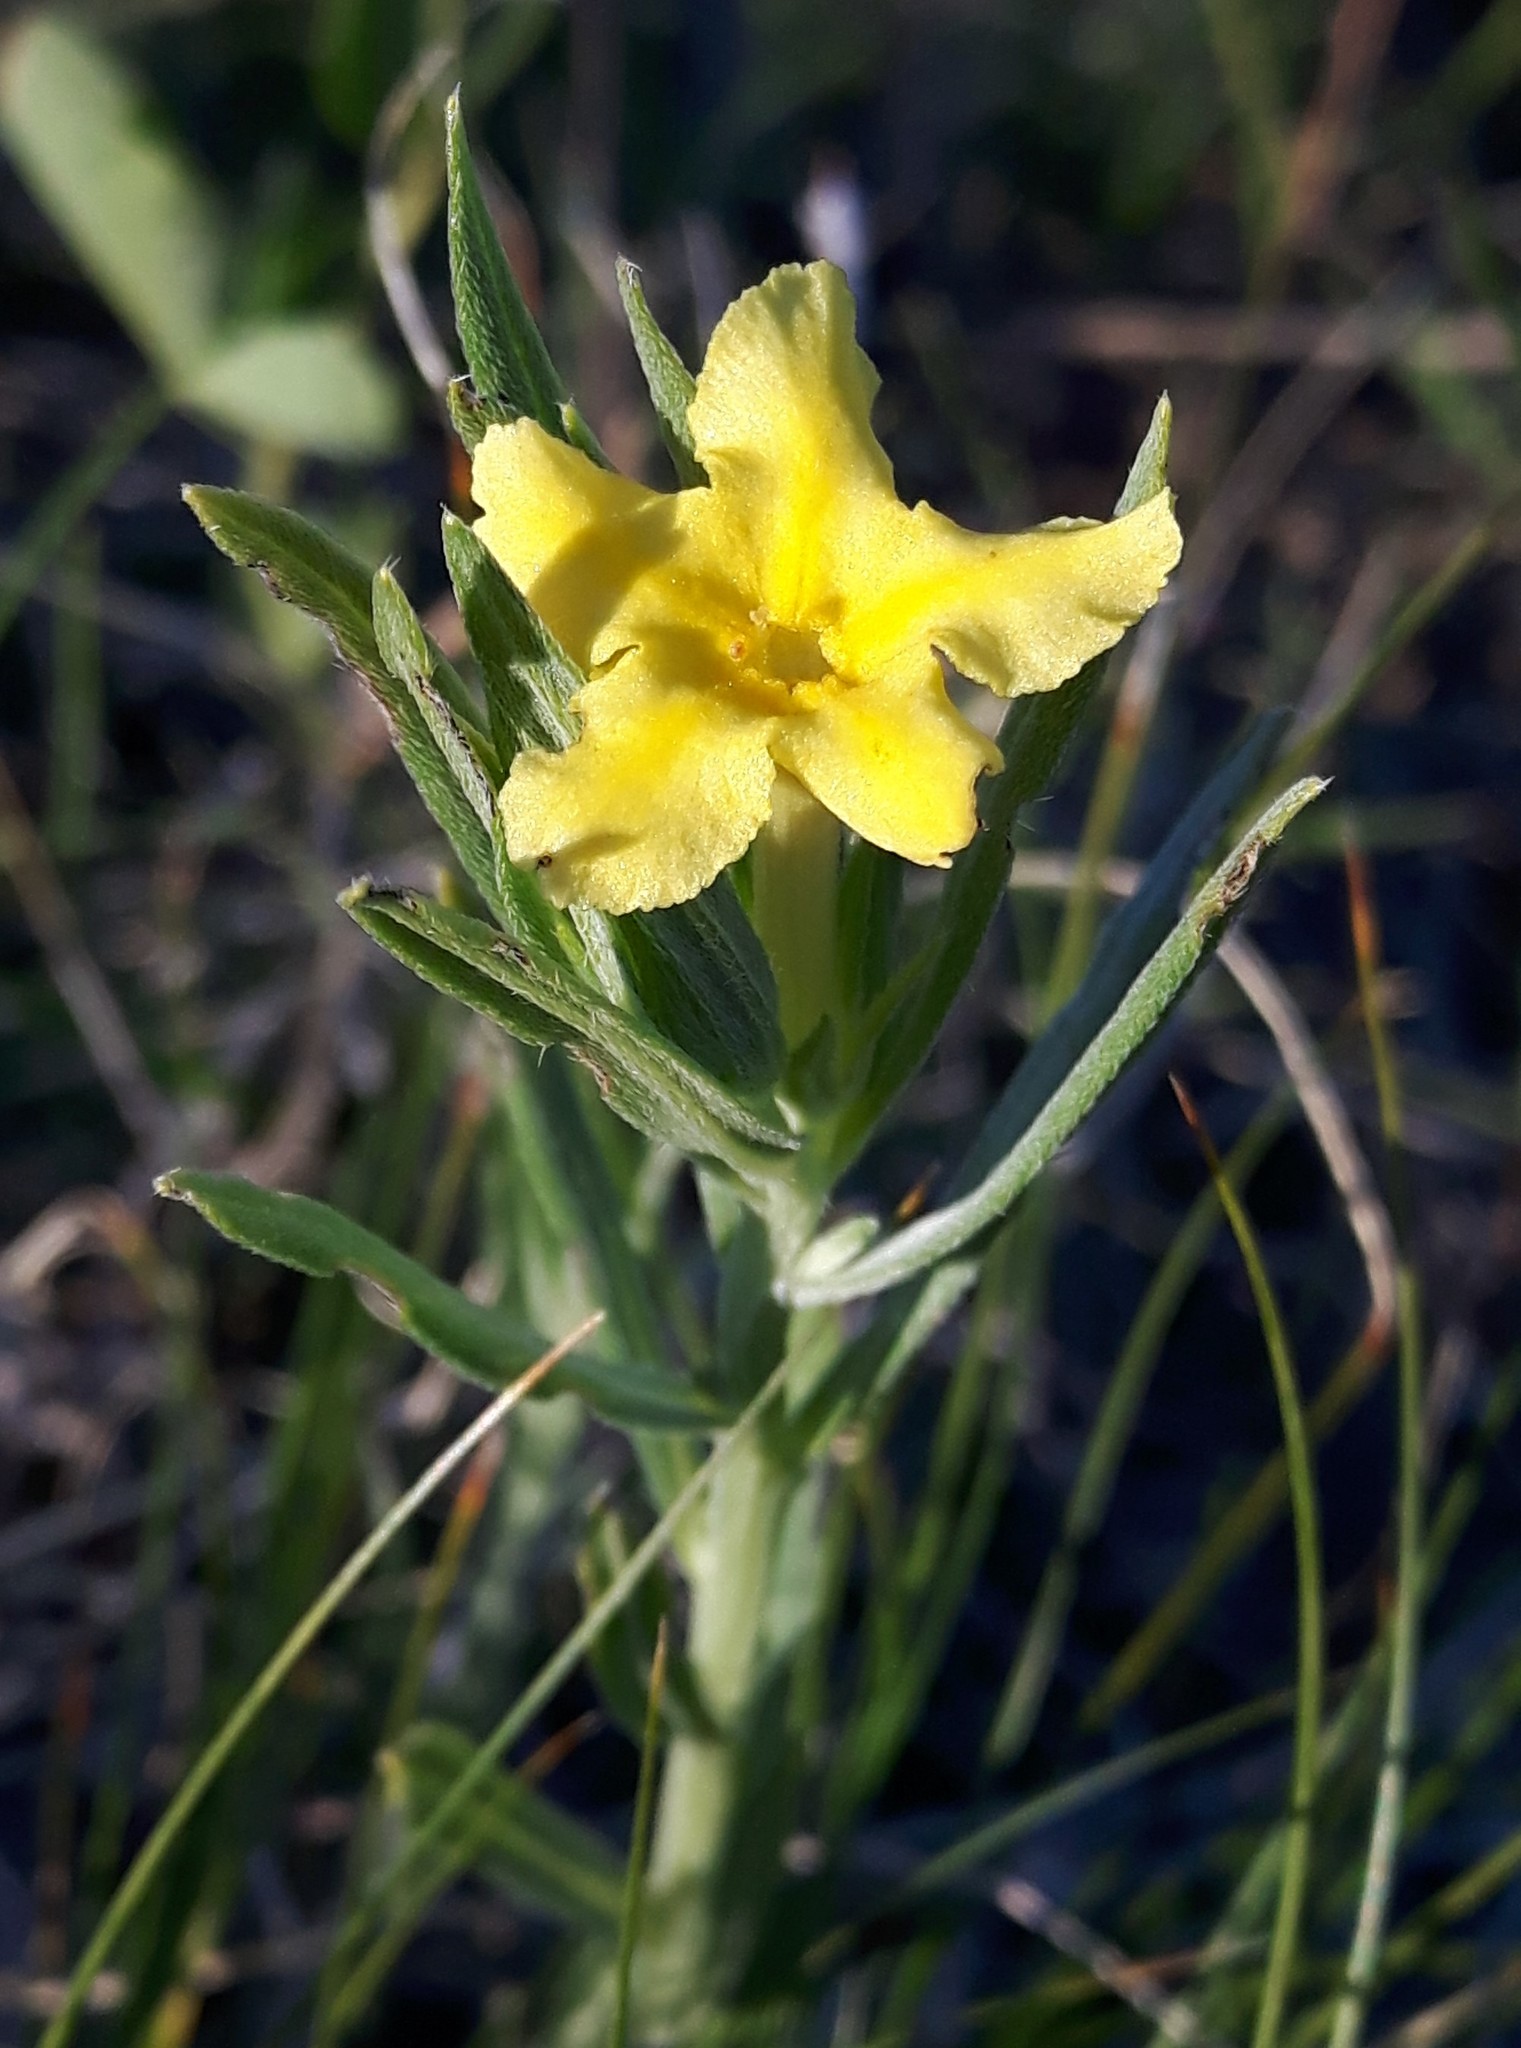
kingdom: Plantae
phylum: Tracheophyta
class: Magnoliopsida
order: Boraginales
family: Boraginaceae
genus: Lithospermum
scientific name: Lithospermum incisum
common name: Fringed gromwell
